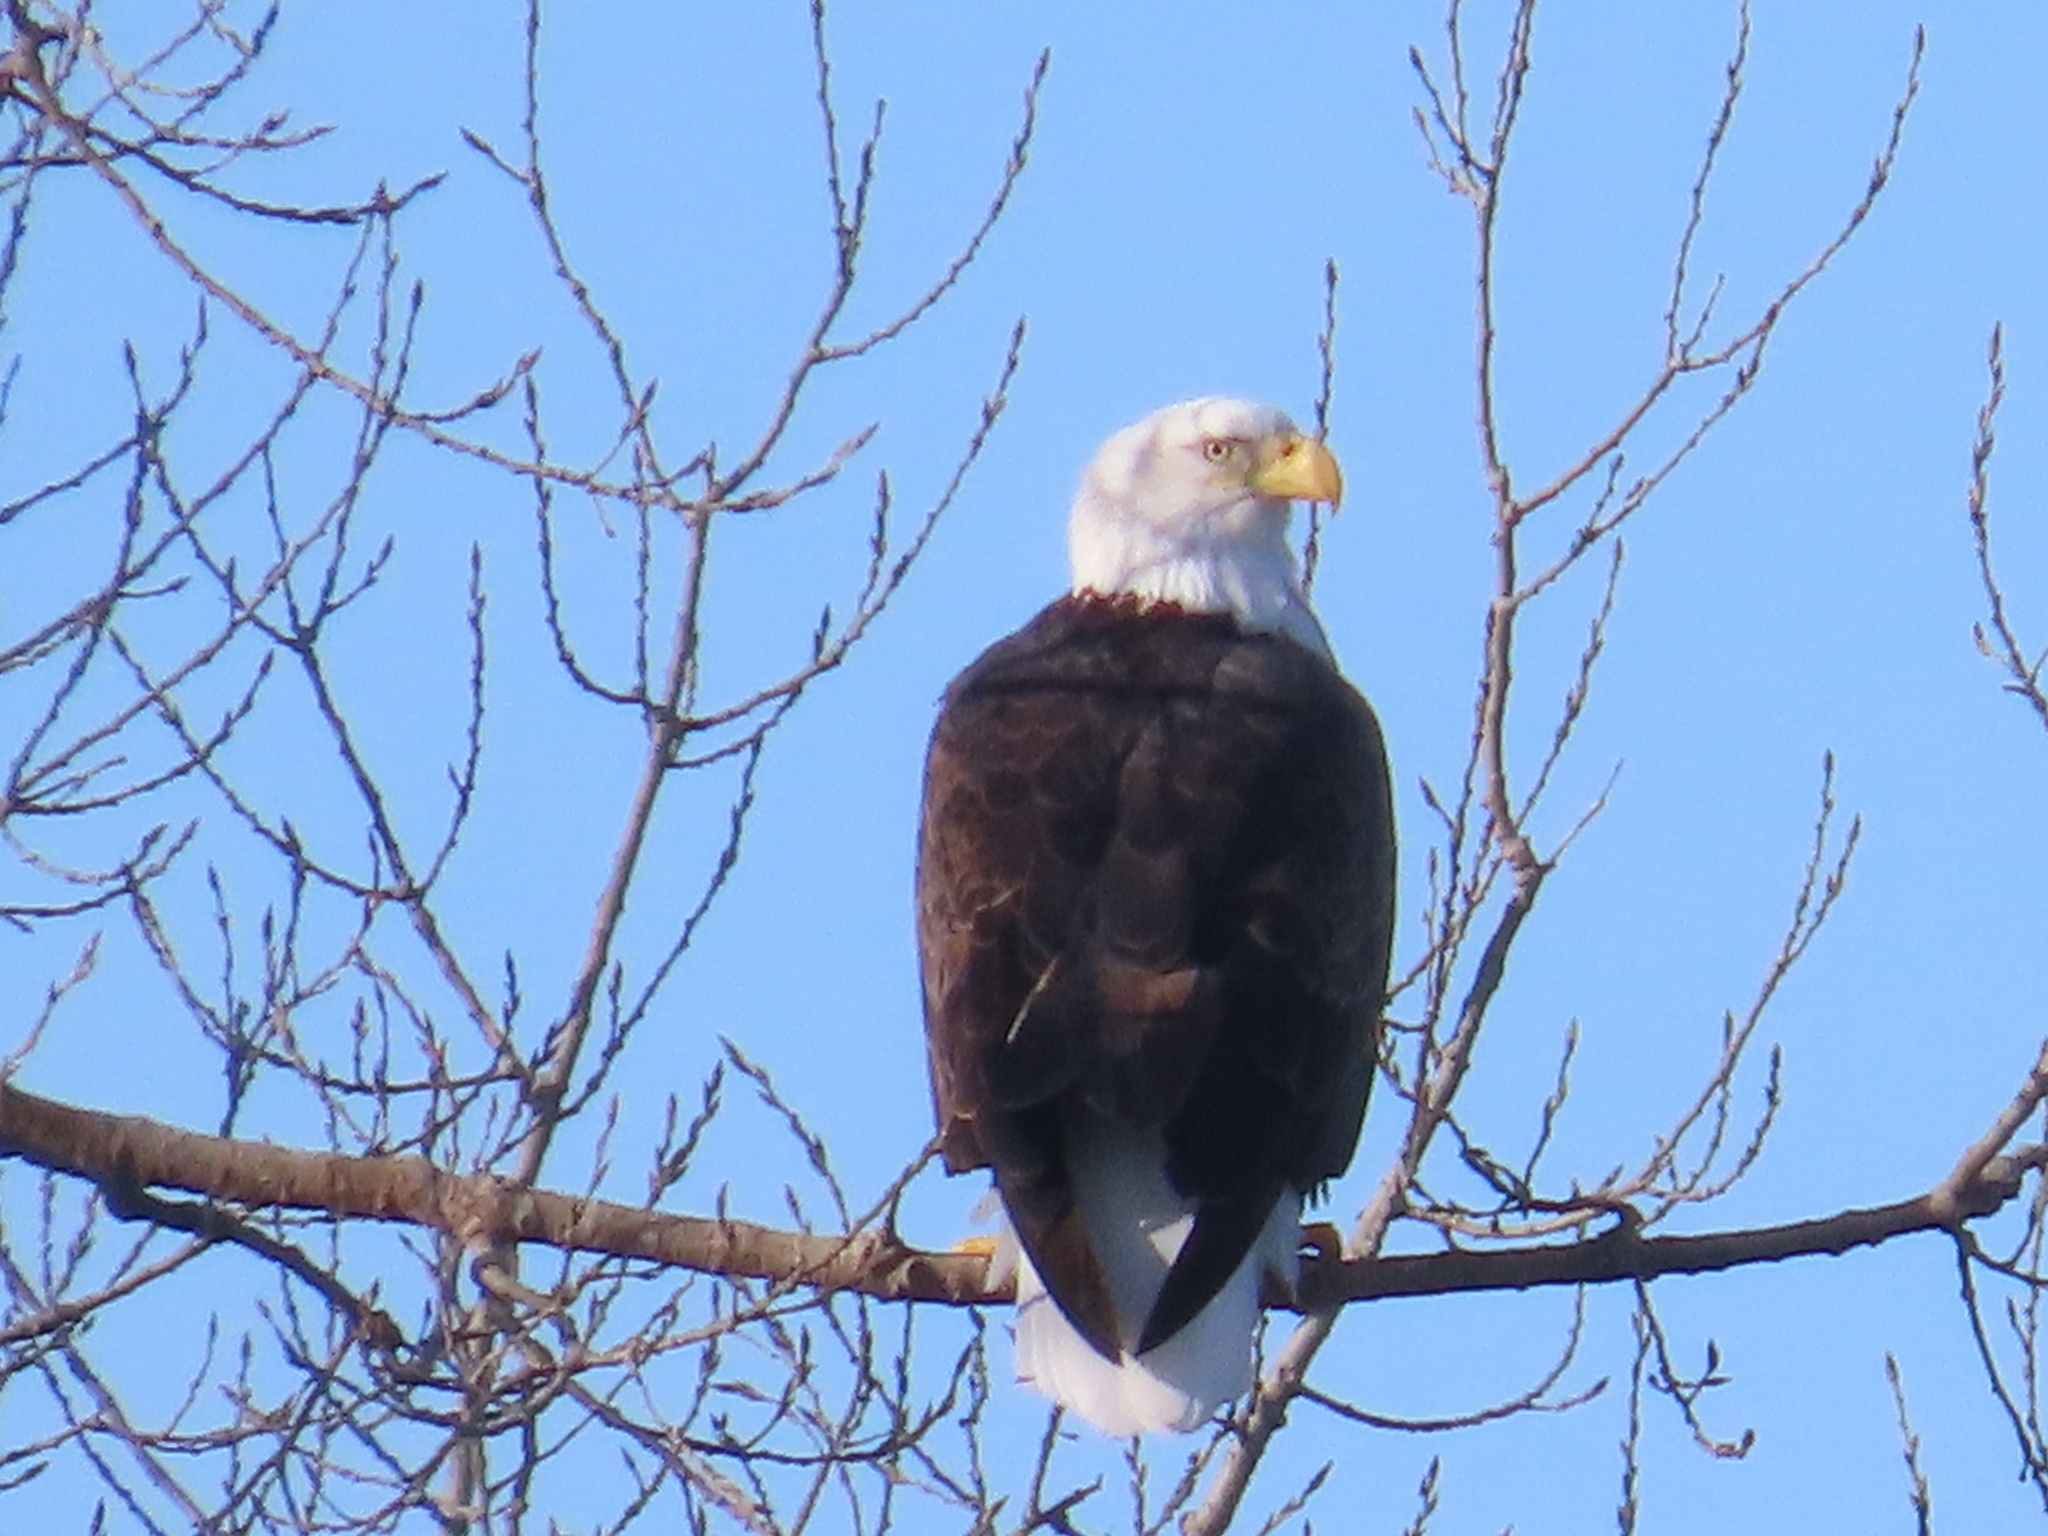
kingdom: Animalia
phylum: Chordata
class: Aves
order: Accipitriformes
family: Accipitridae
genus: Haliaeetus
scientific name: Haliaeetus leucocephalus
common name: Bald eagle
